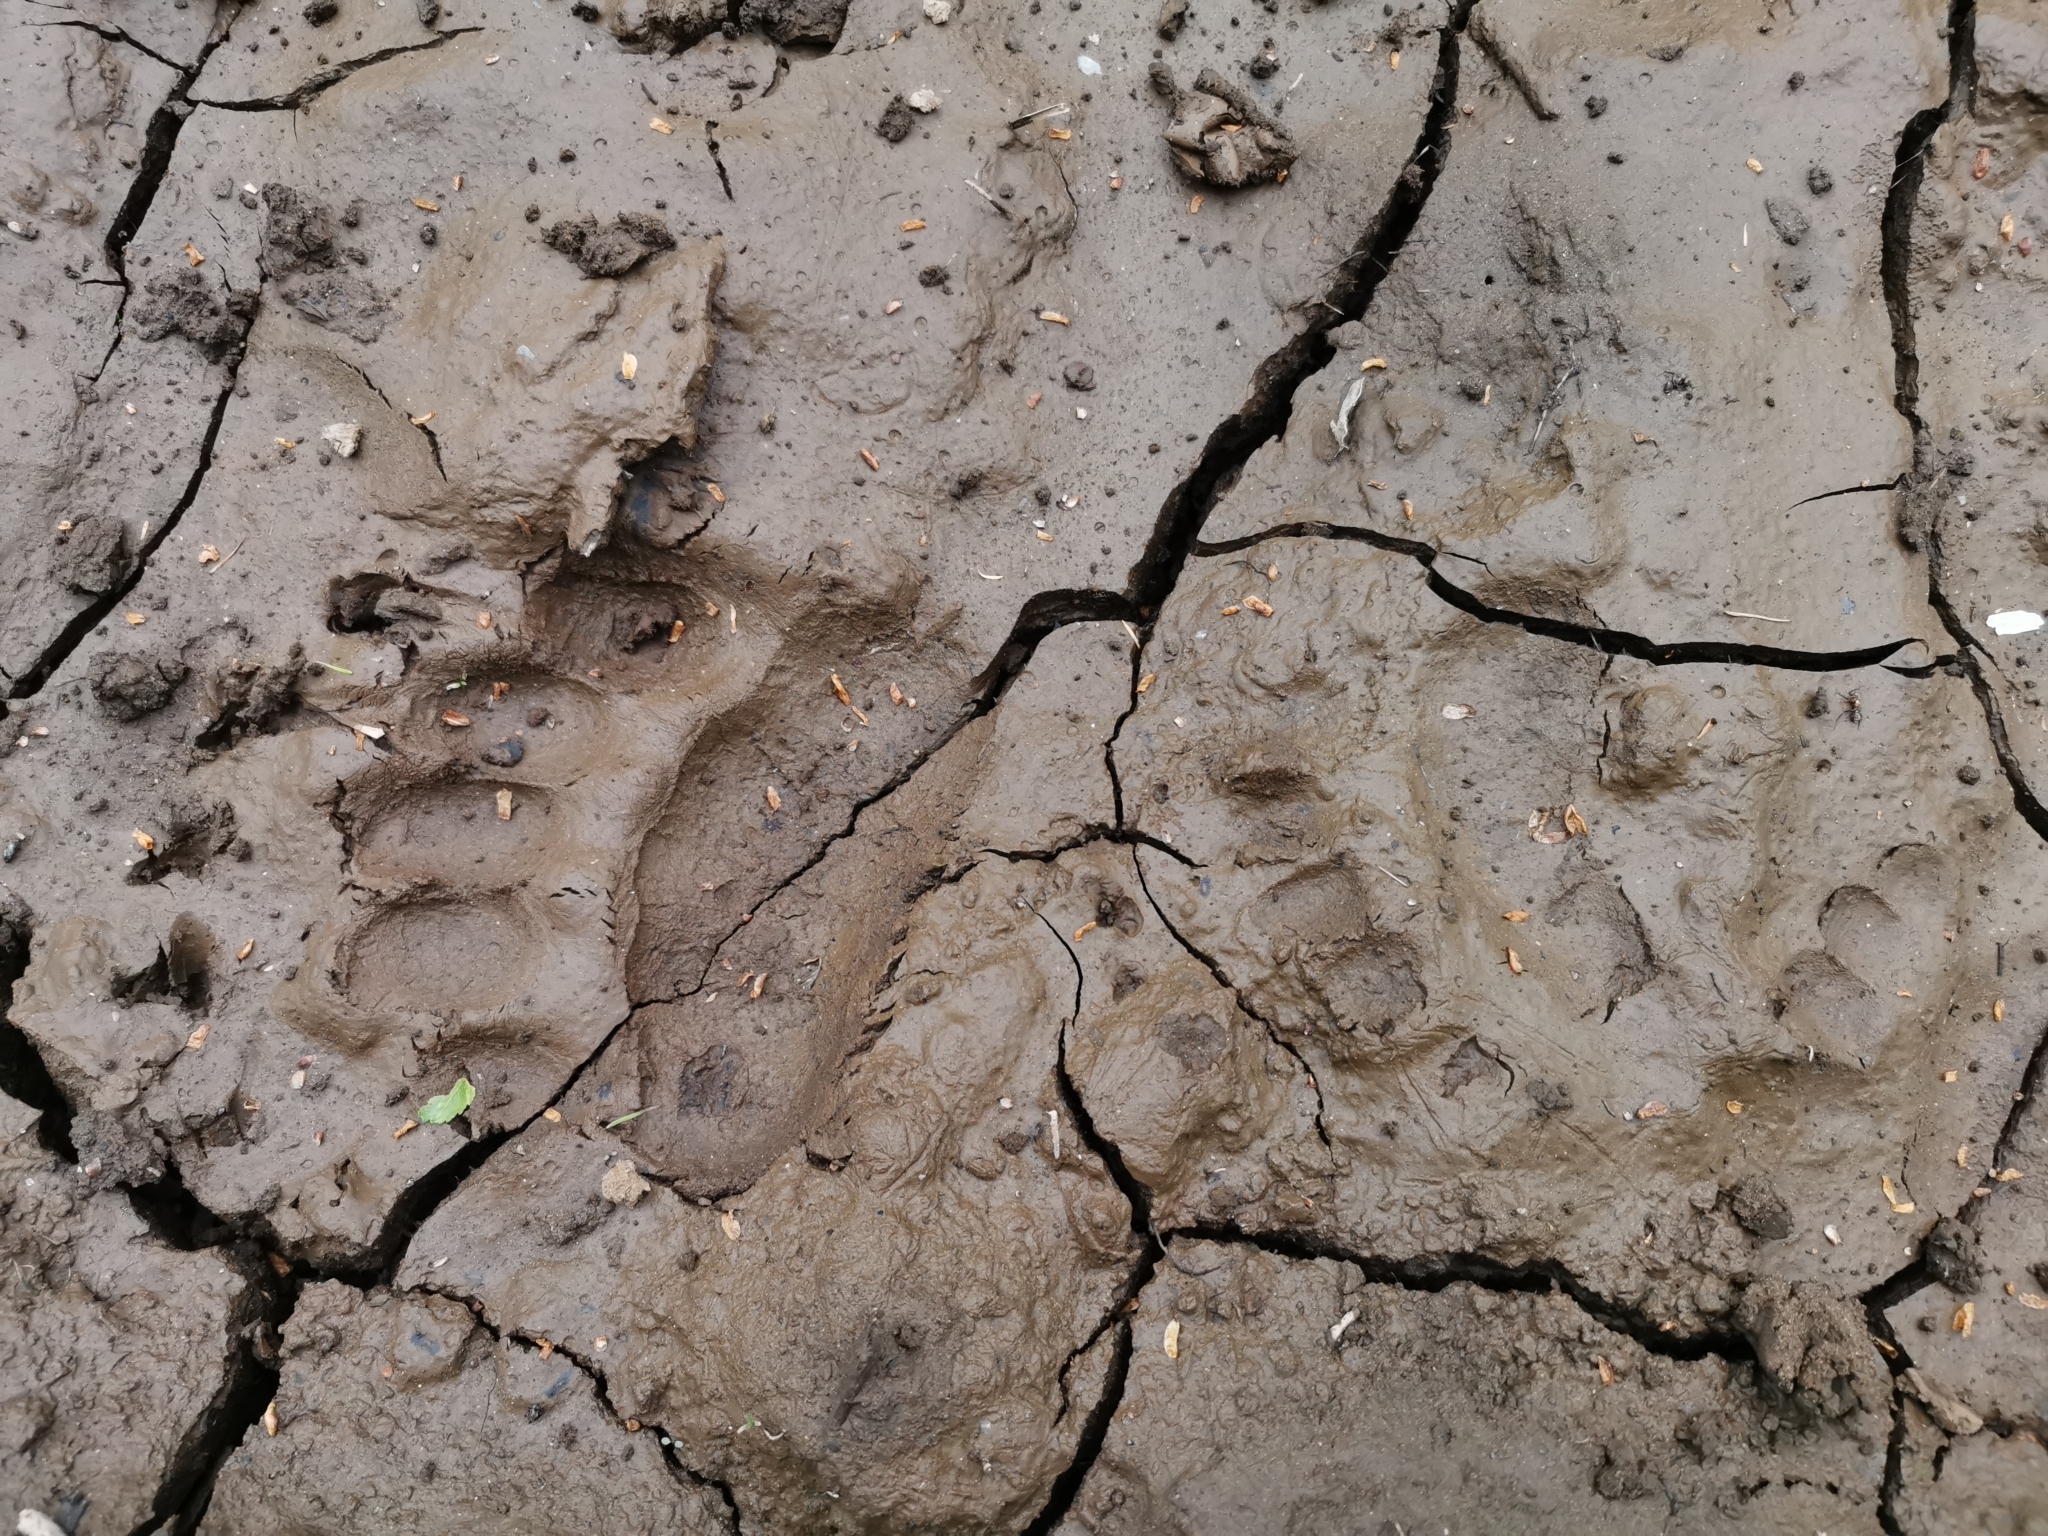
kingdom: Animalia
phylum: Chordata
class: Mammalia
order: Carnivora
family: Ursidae
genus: Ursus
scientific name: Ursus arctos
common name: Brown bear
